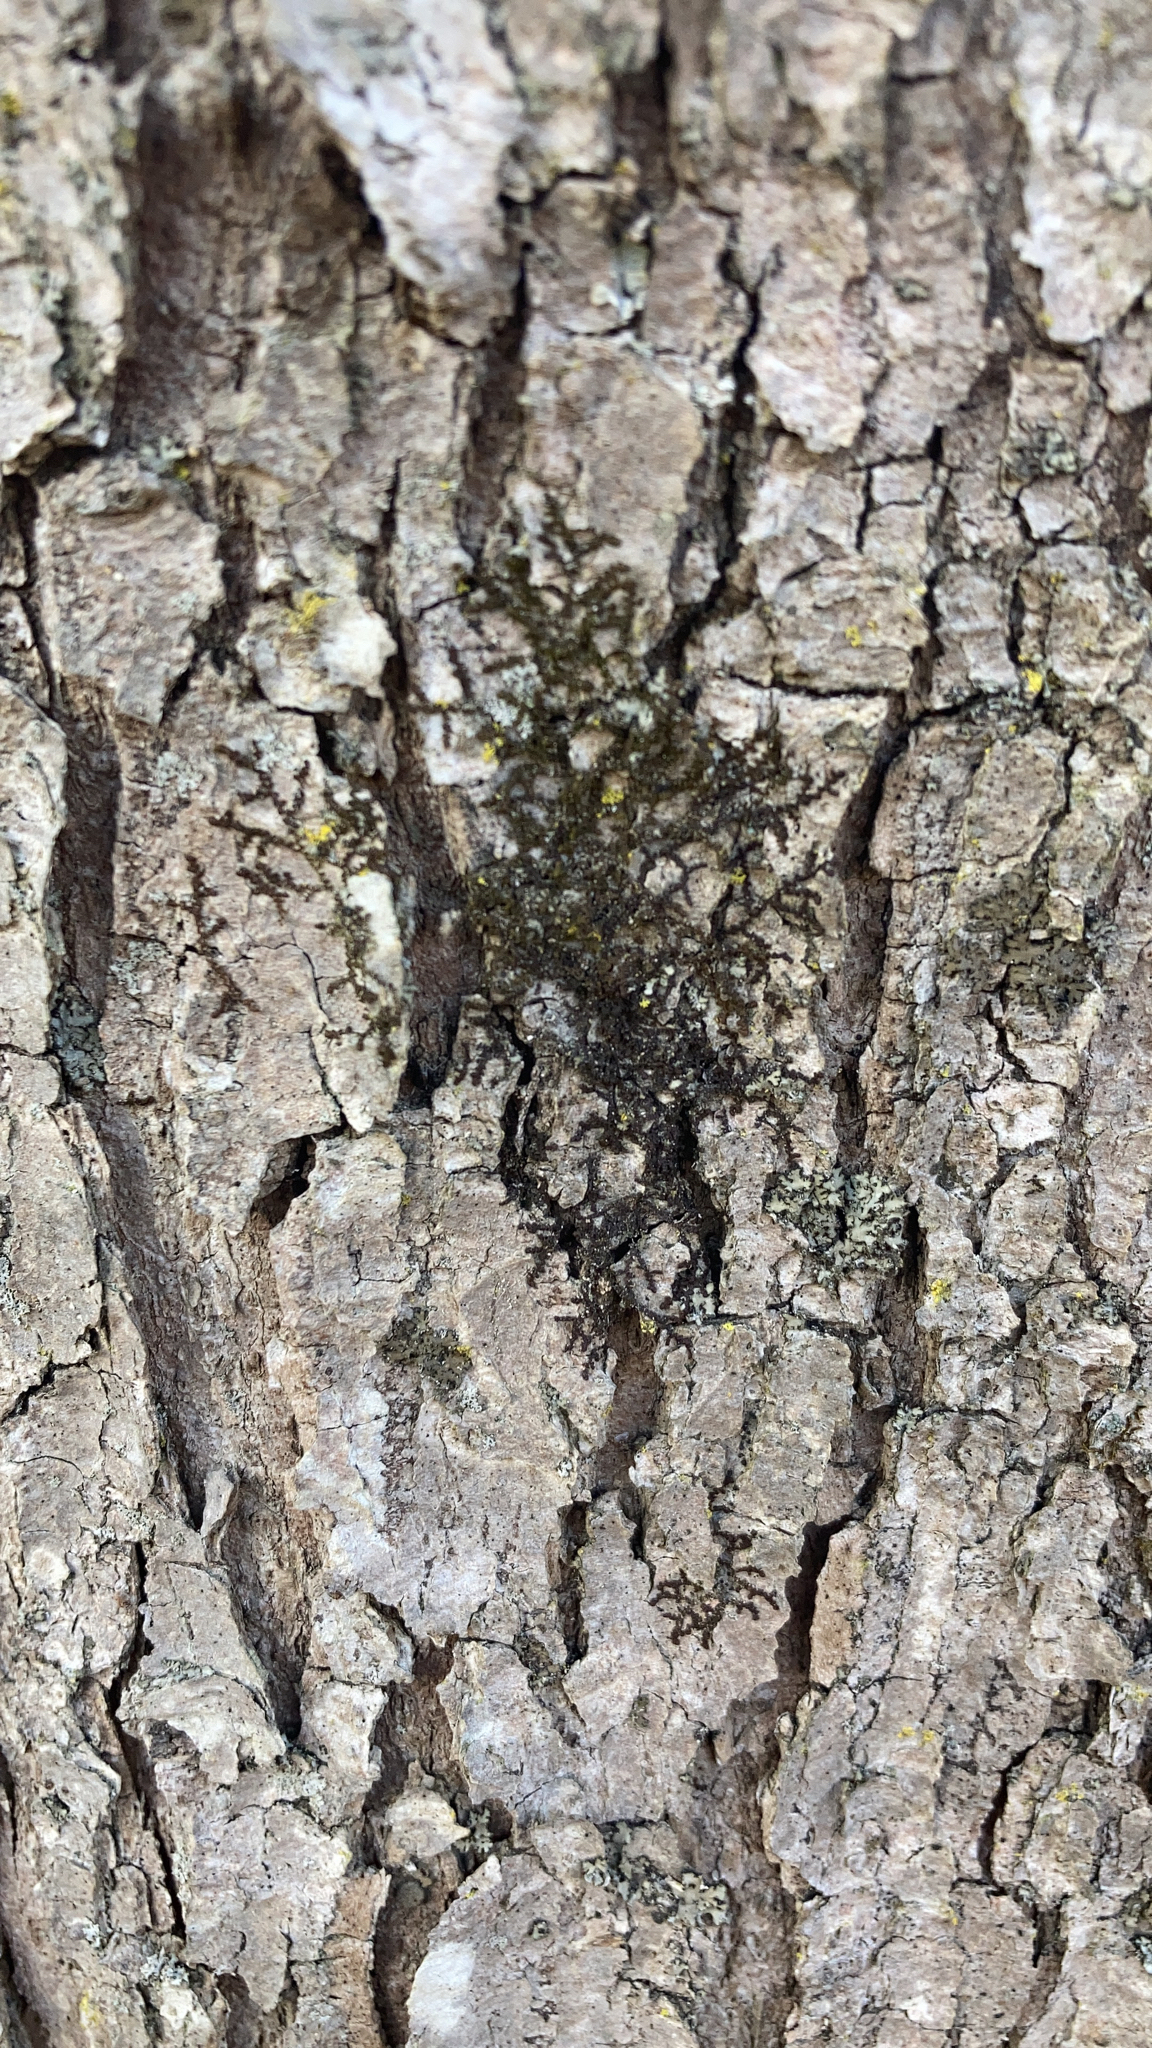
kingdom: Plantae
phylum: Marchantiophyta
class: Jungermanniopsida
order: Porellales
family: Frullaniaceae
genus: Frullania
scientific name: Frullania eboracensis
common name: New york scalewort
